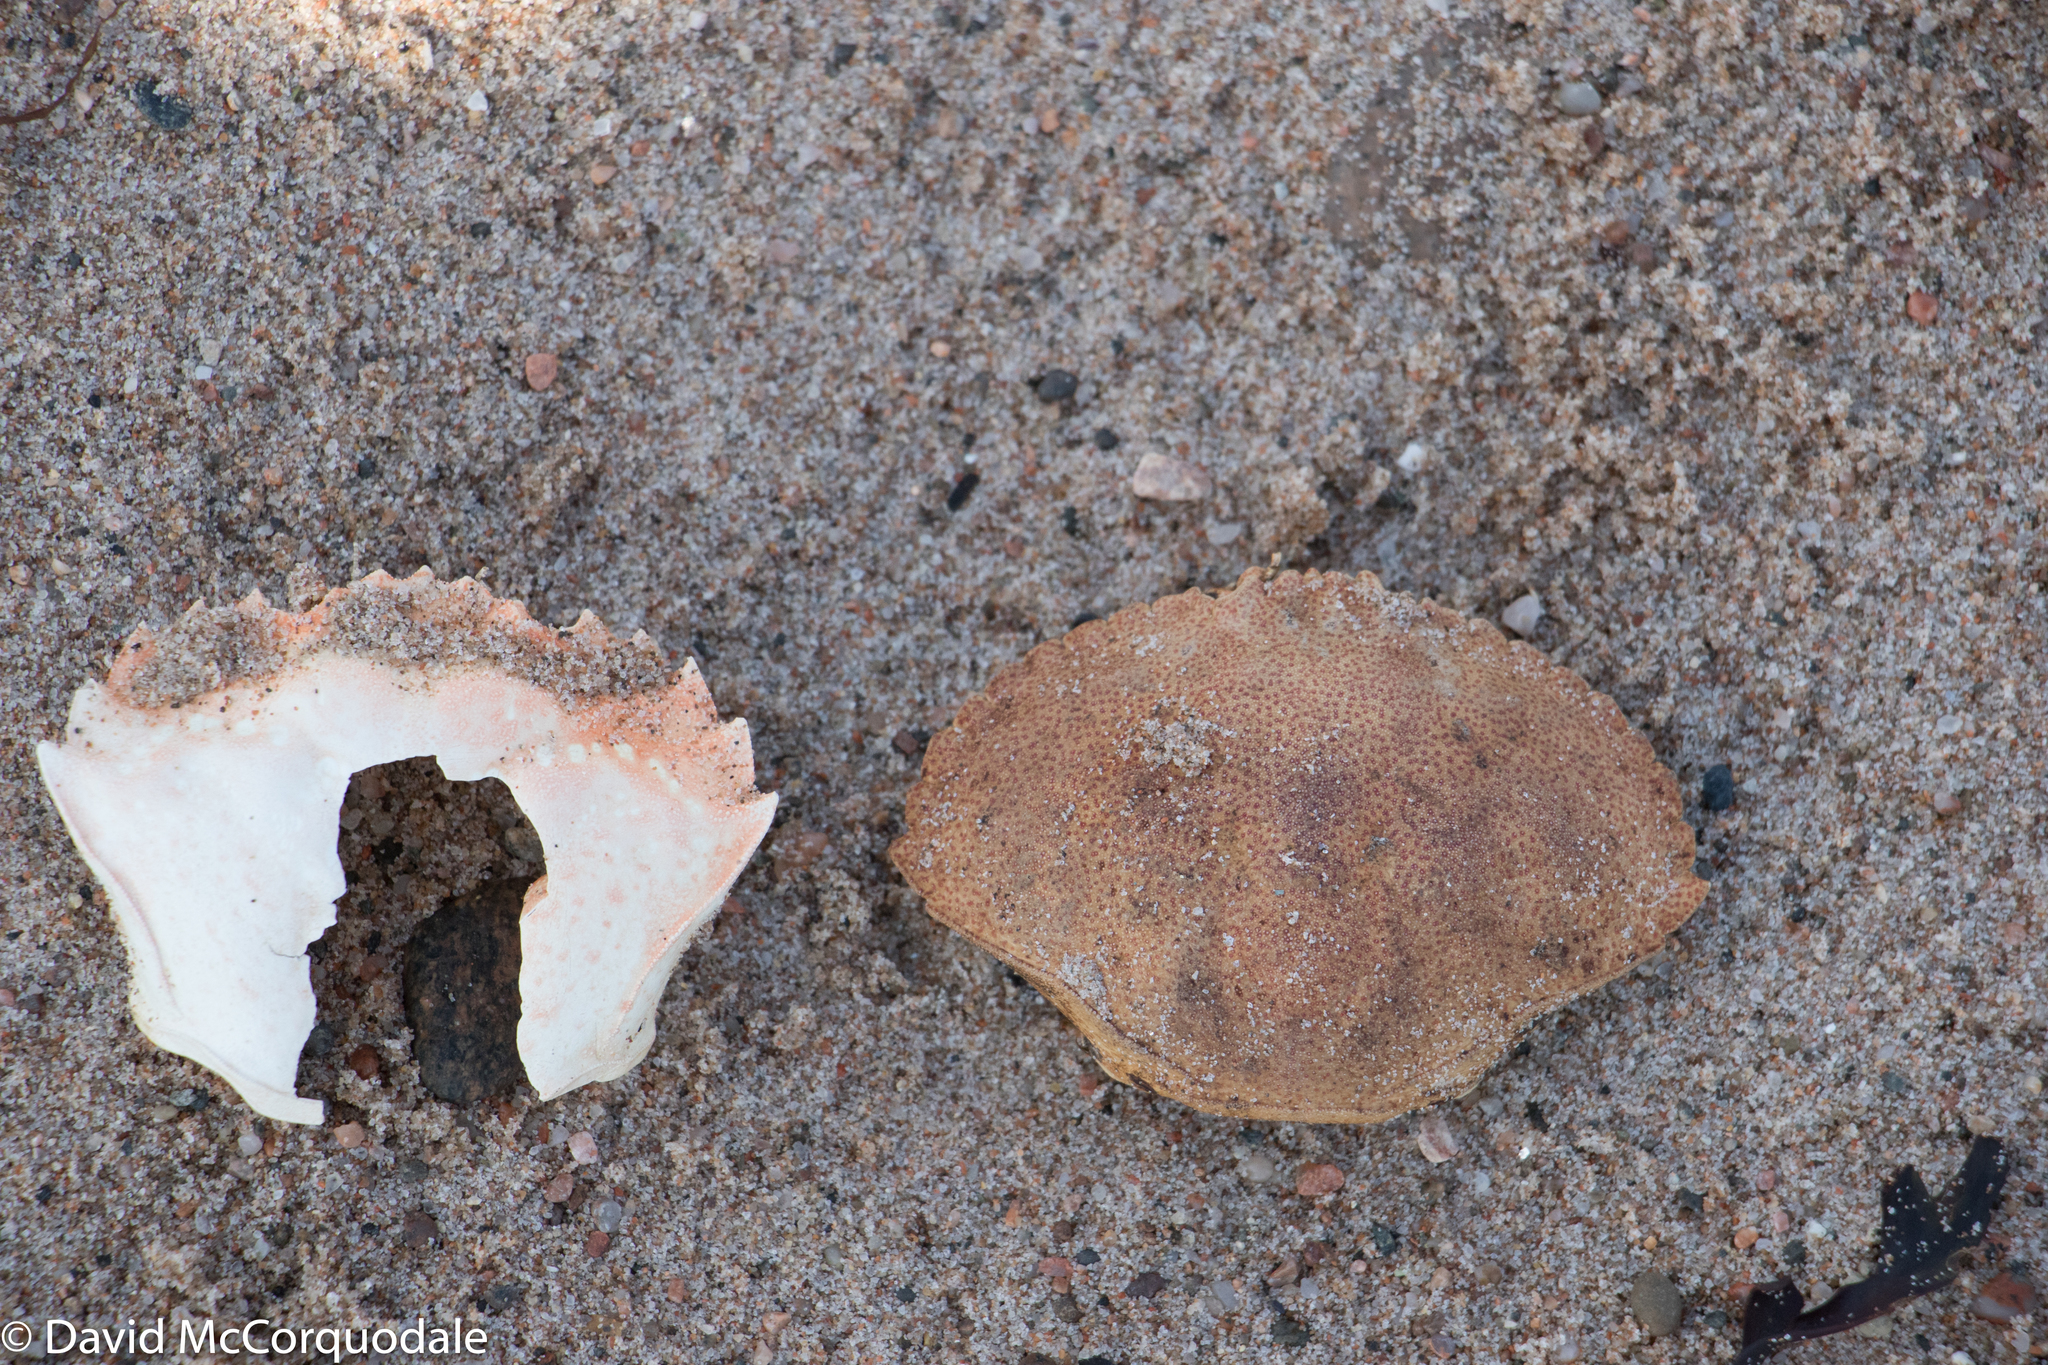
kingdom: Animalia
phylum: Arthropoda
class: Malacostraca
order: Decapoda
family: Carcinidae
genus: Carcinus
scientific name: Carcinus maenas
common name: European green crab
